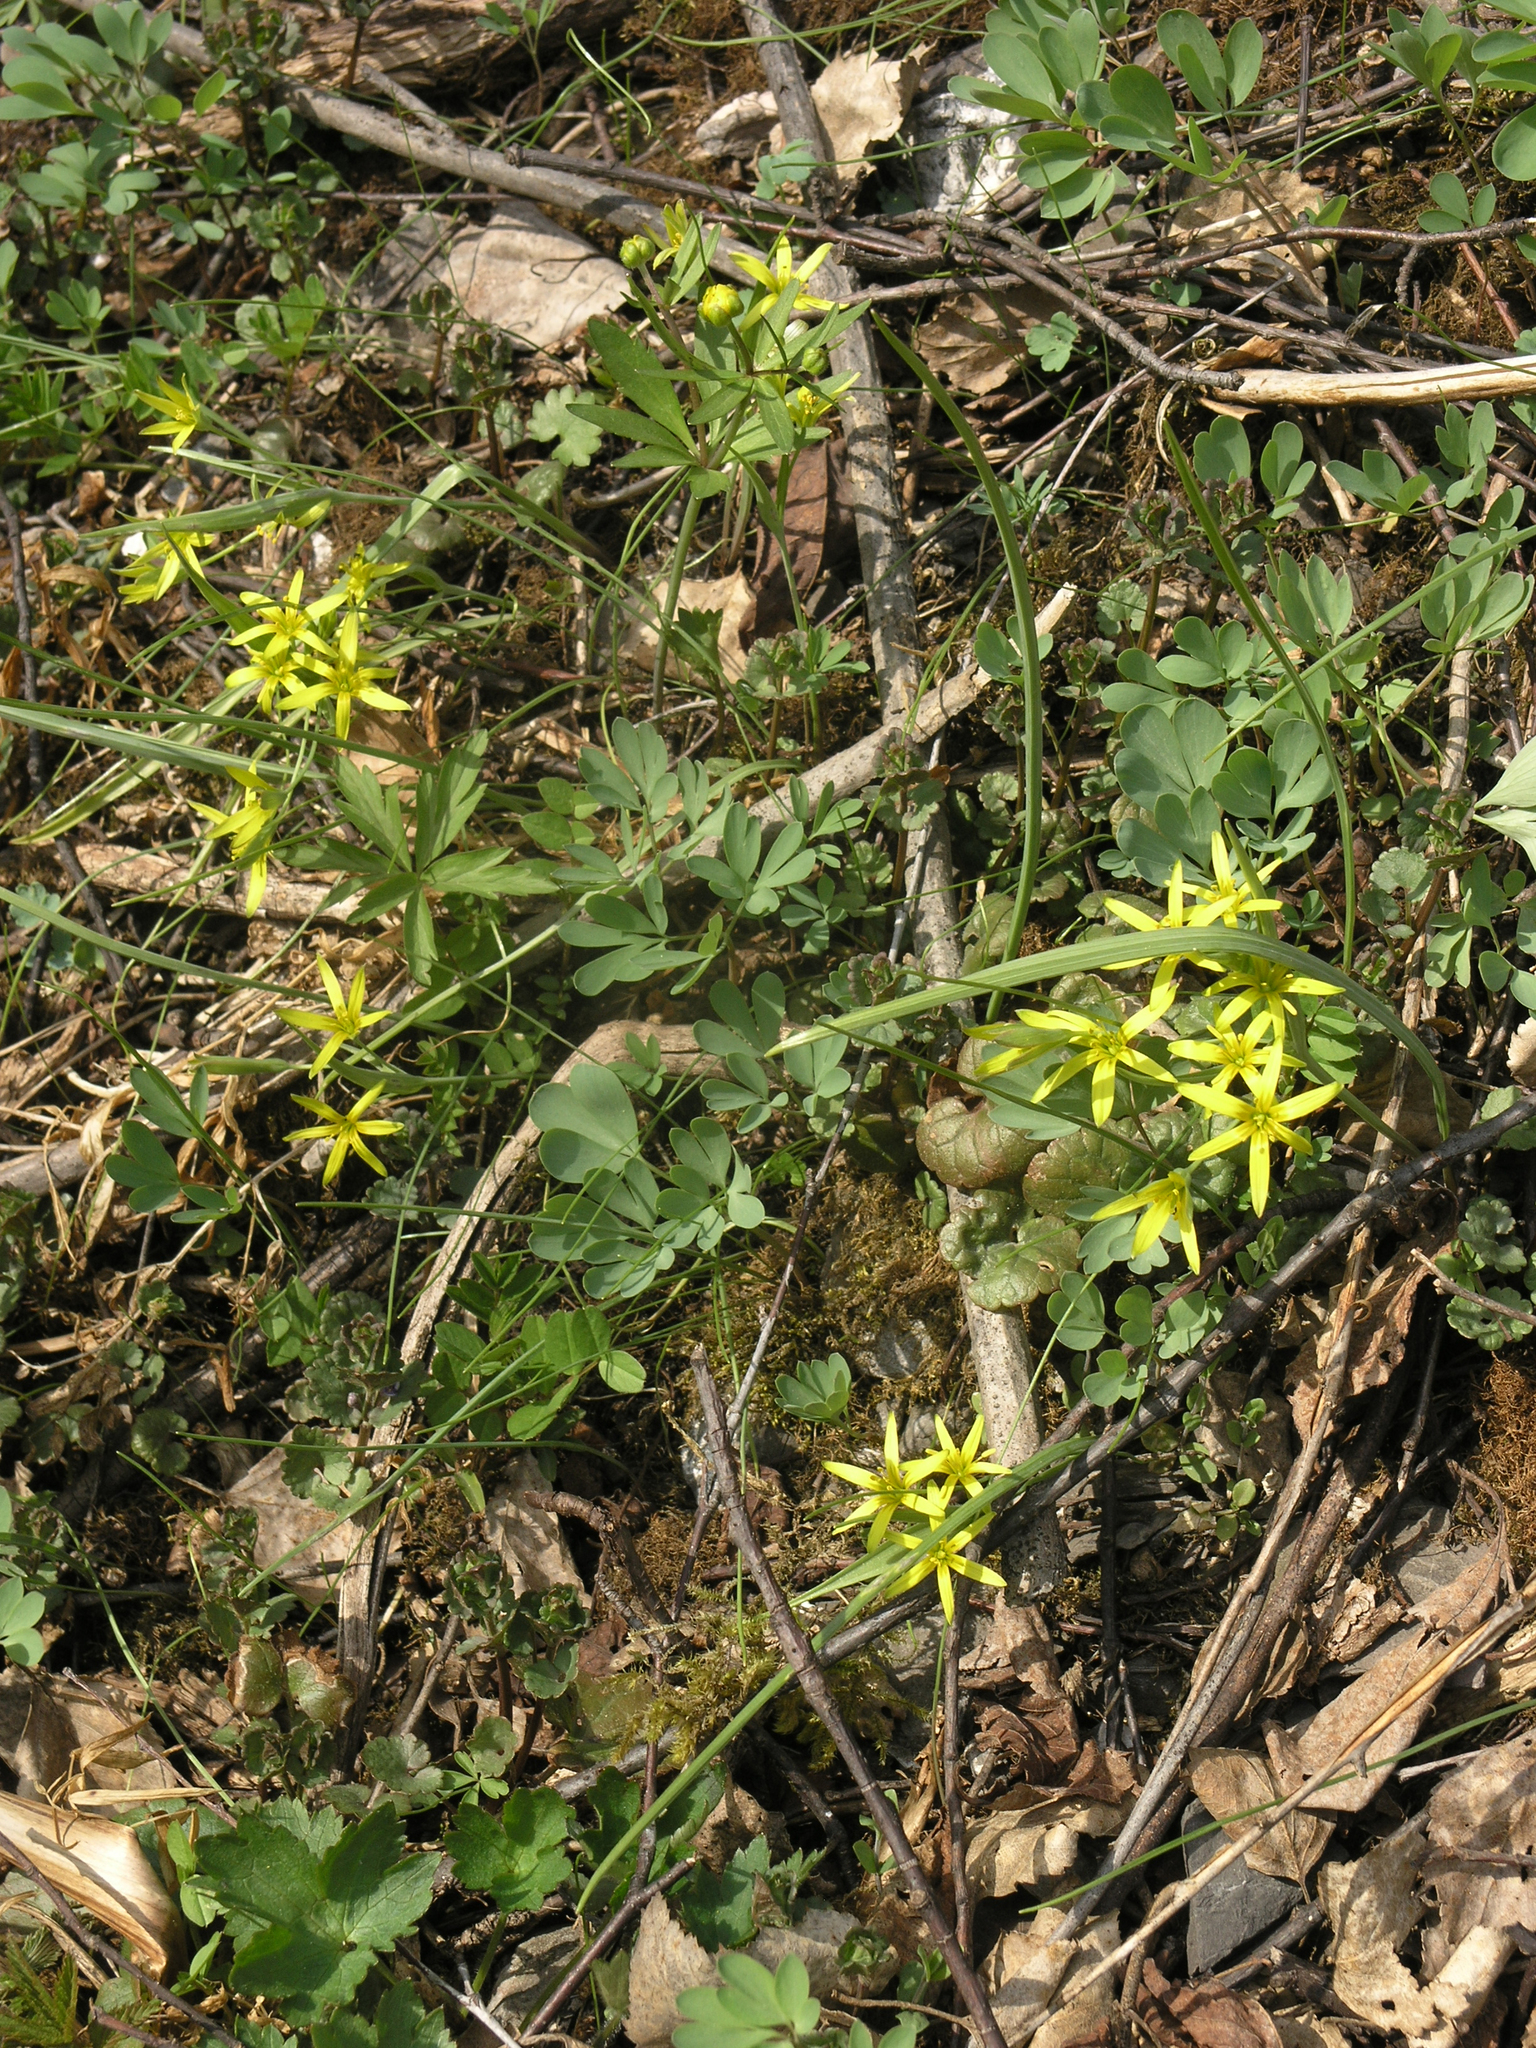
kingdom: Plantae
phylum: Tracheophyta
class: Magnoliopsida
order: Lamiales
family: Lamiaceae
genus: Glechoma
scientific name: Glechoma hederacea
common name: Ground ivy
